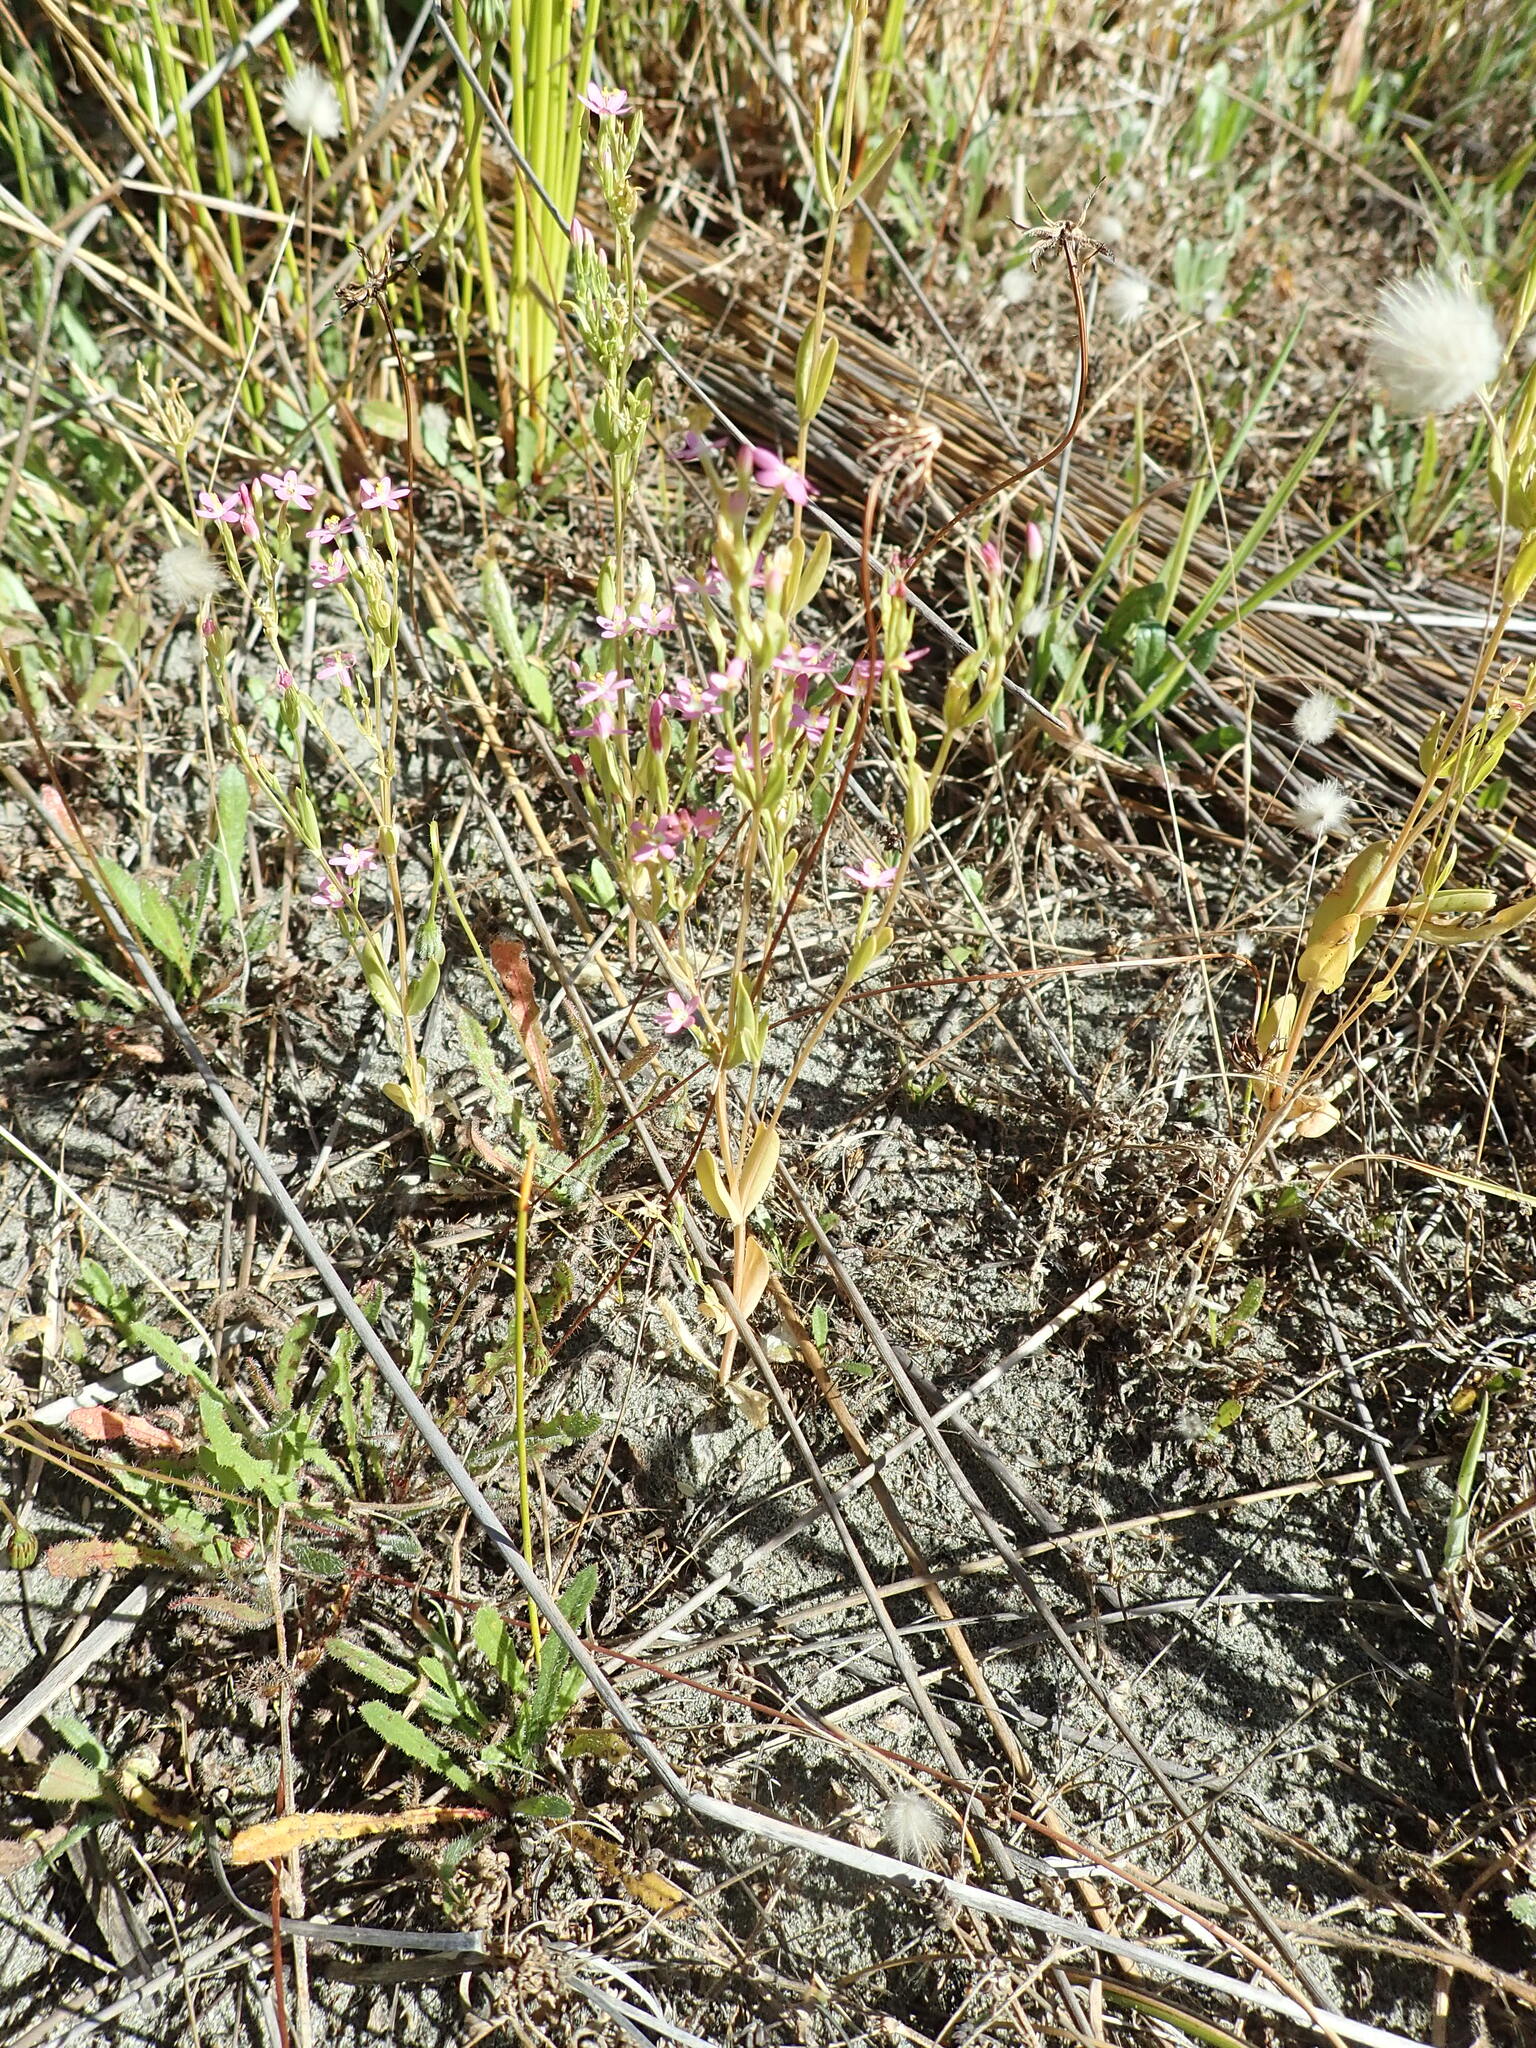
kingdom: Plantae
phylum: Tracheophyta
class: Magnoliopsida
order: Gentianales
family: Gentianaceae
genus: Centaurium
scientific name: Centaurium erythraea
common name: Common centaury
